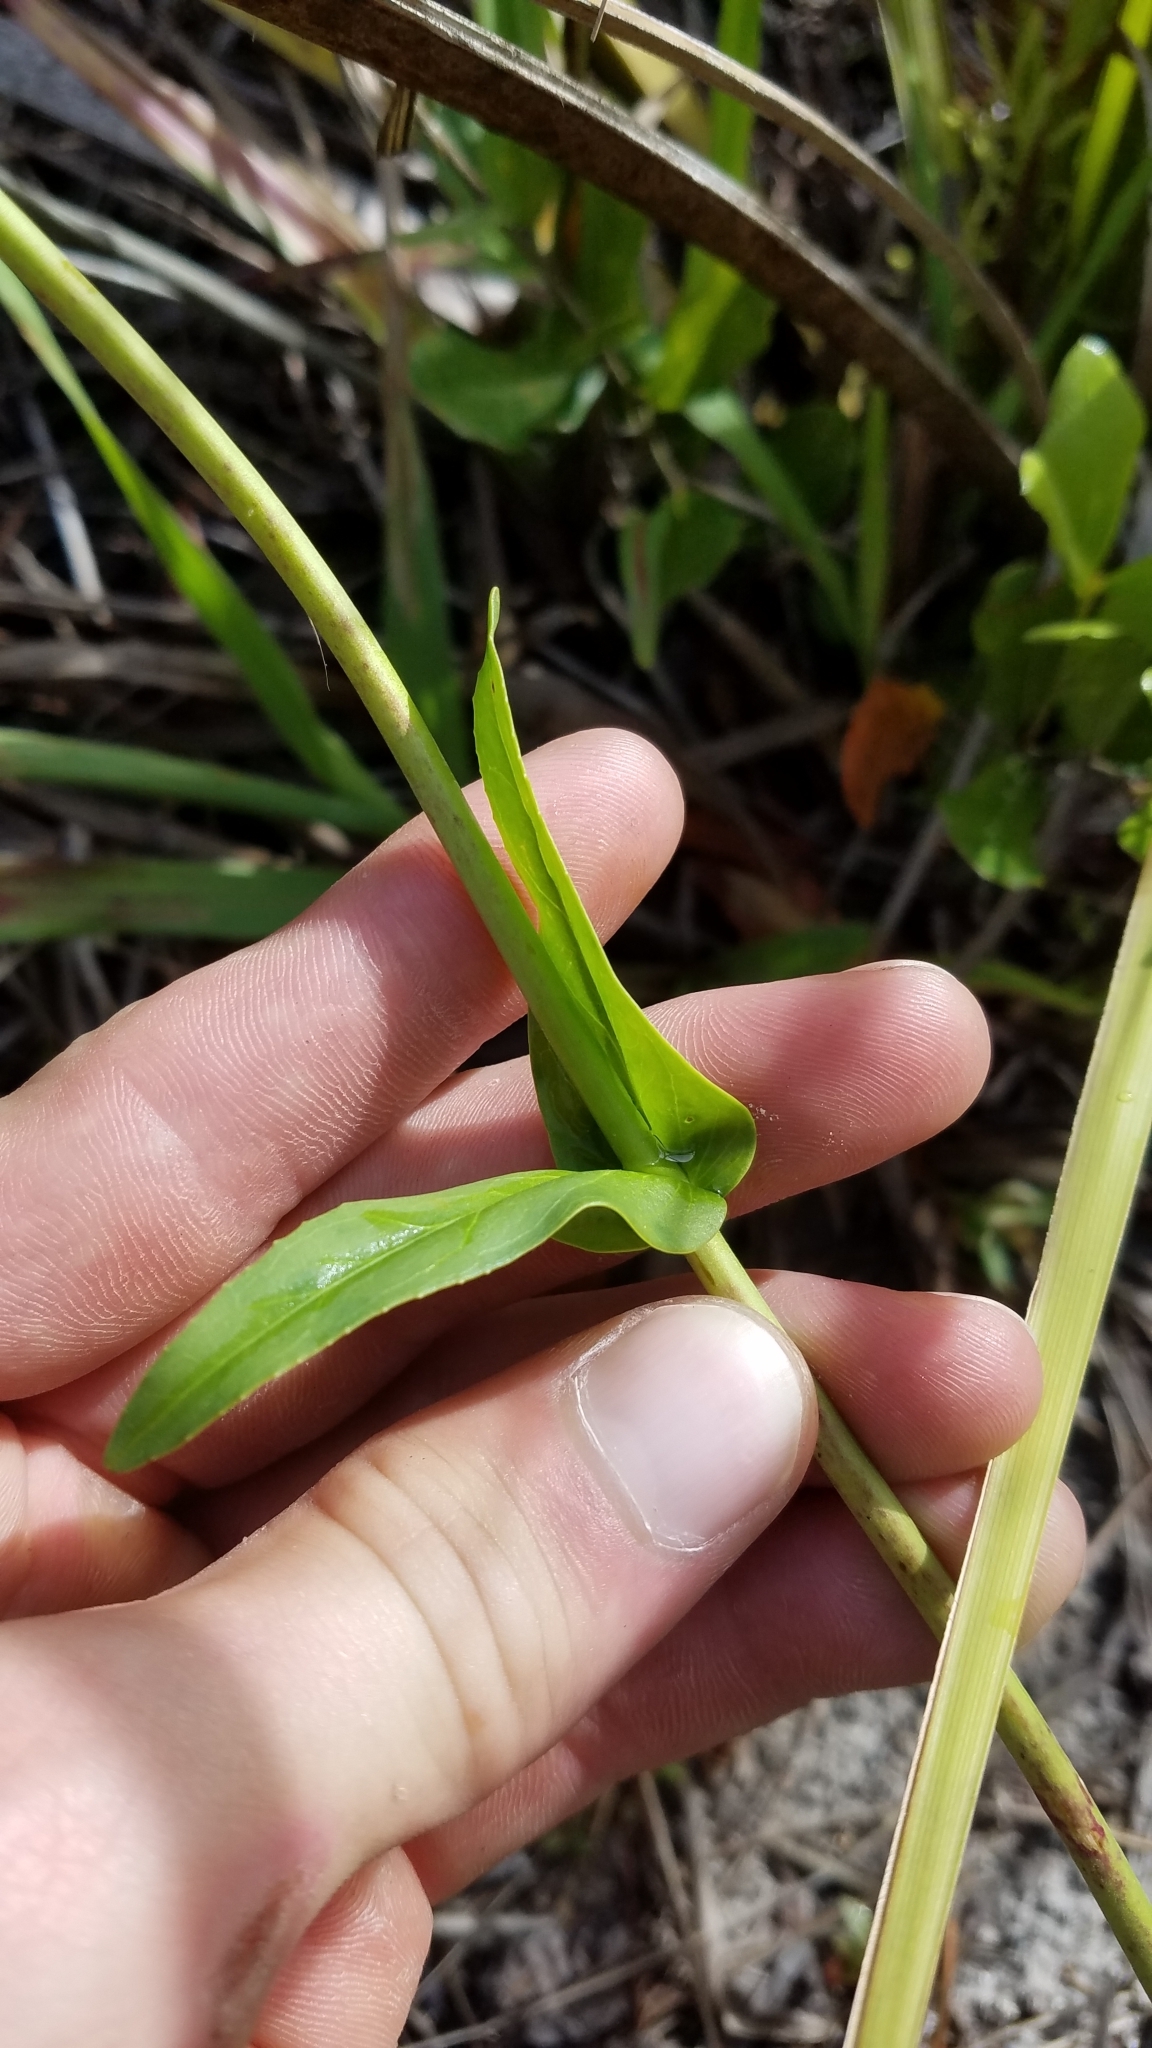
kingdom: Plantae
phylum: Tracheophyta
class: Magnoliopsida
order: Lamiales
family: Plantaginaceae
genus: Penstemon
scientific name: Penstemon multiflorus
